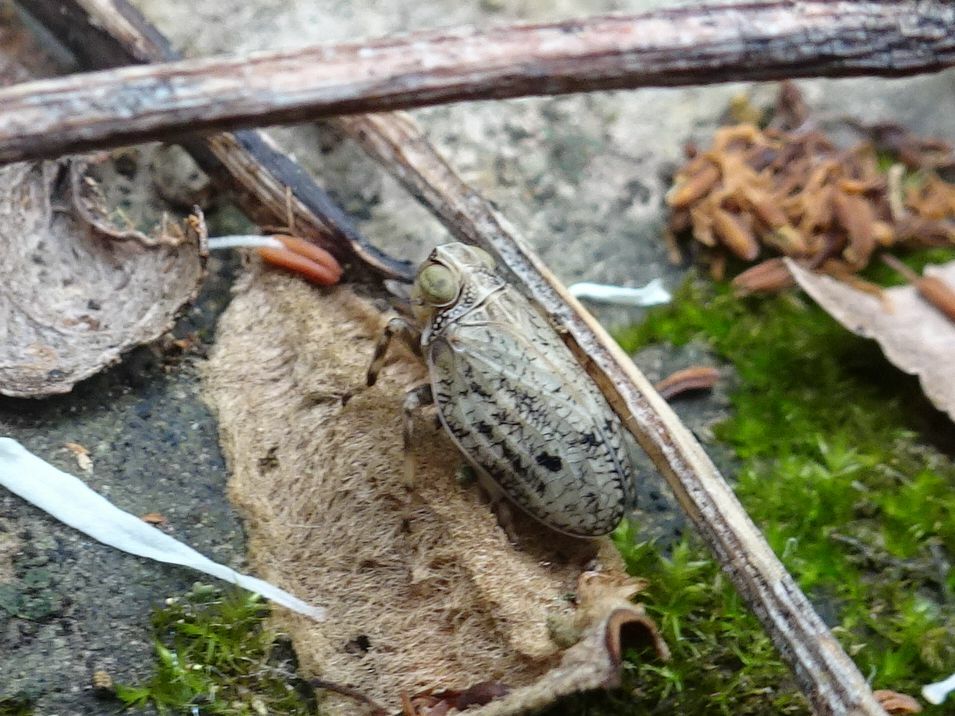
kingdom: Animalia
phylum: Arthropoda
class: Insecta
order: Hemiptera
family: Issidae
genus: Issus
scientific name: Issus coleoptratus
